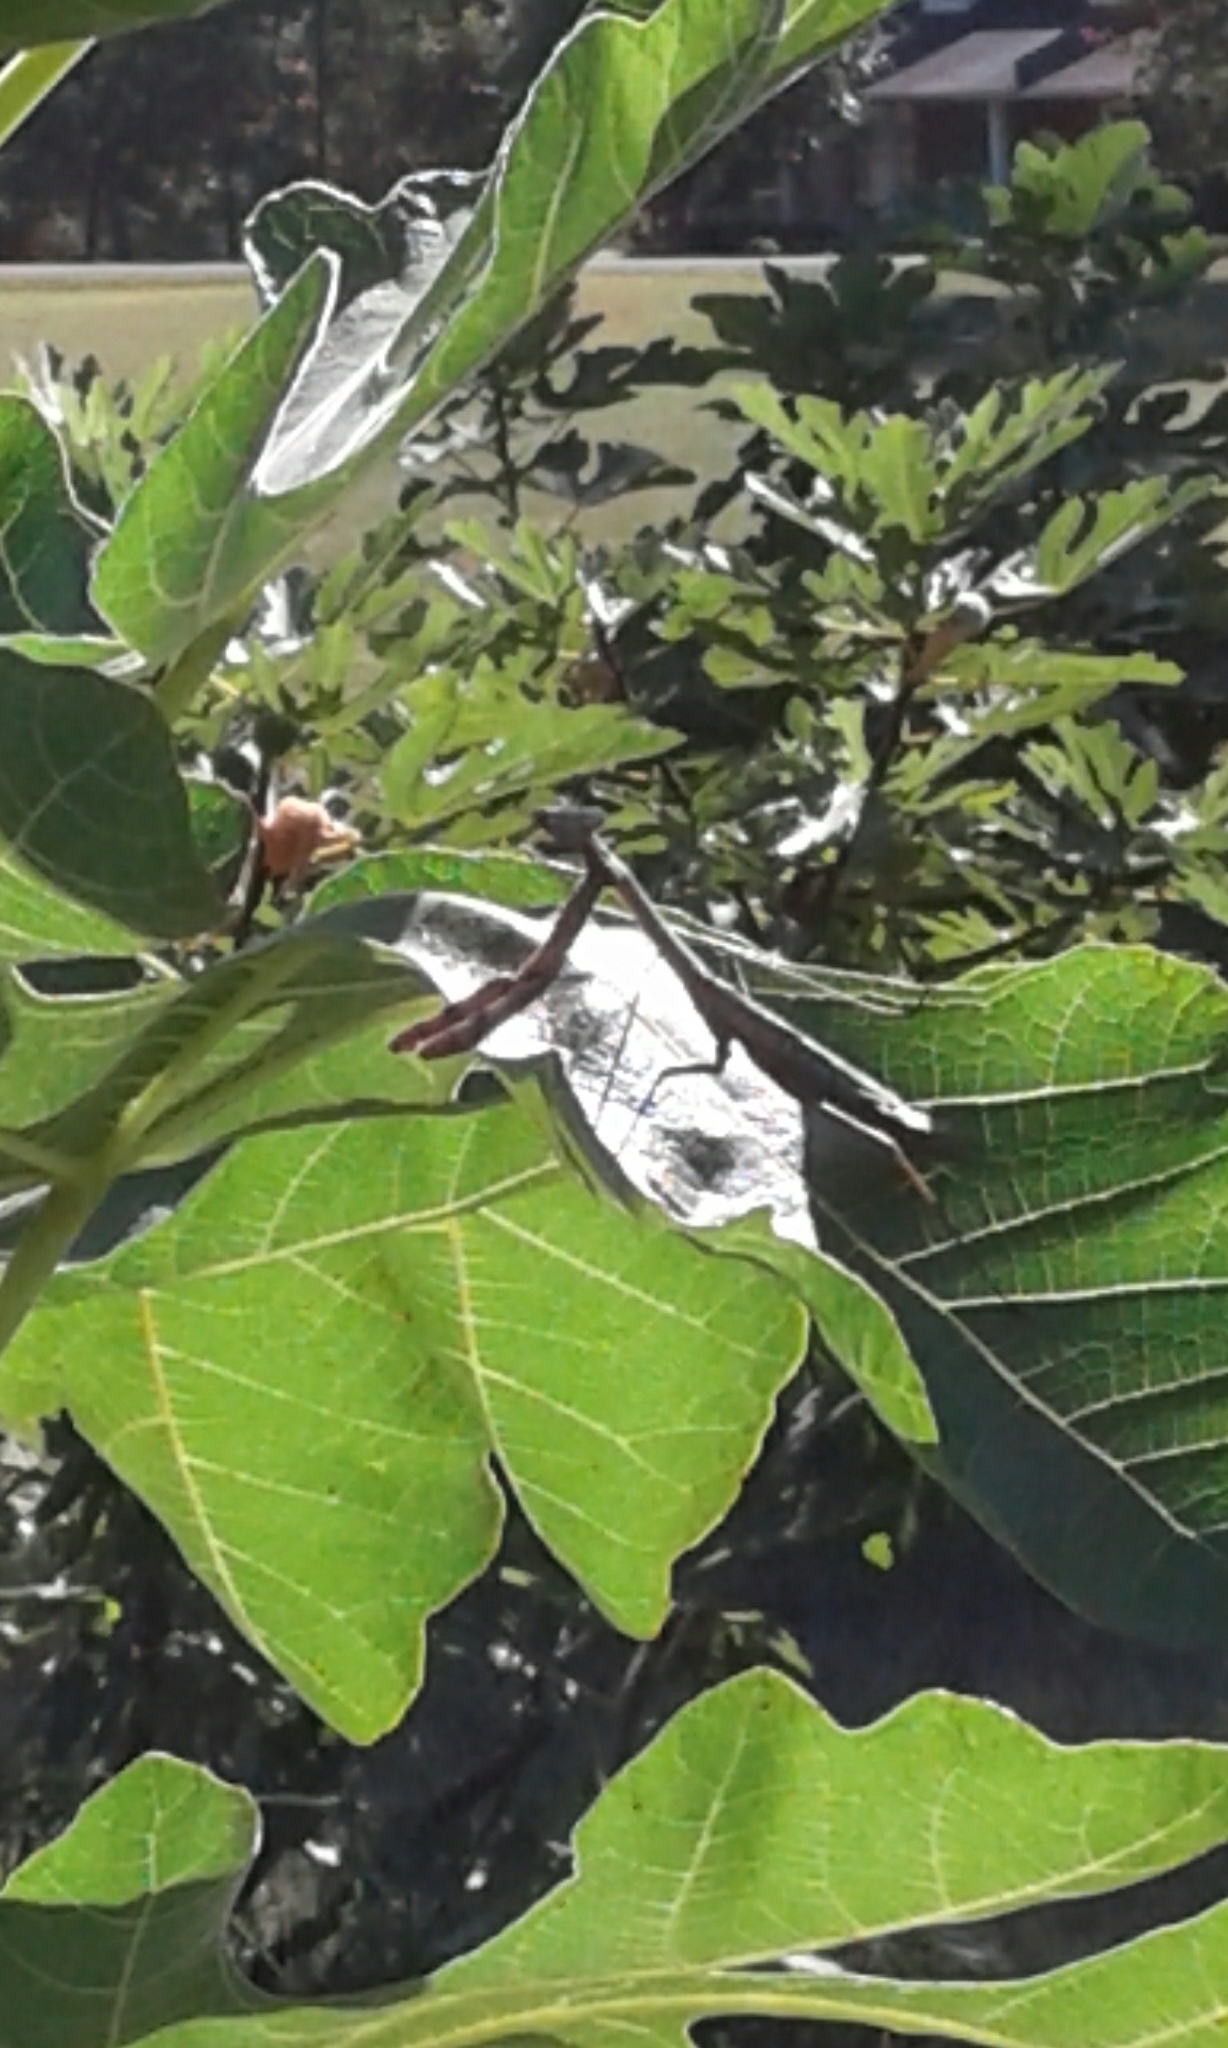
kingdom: Animalia
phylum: Arthropoda
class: Insecta
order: Mantodea
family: Mantidae
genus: Stagmomantis
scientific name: Stagmomantis carolina
